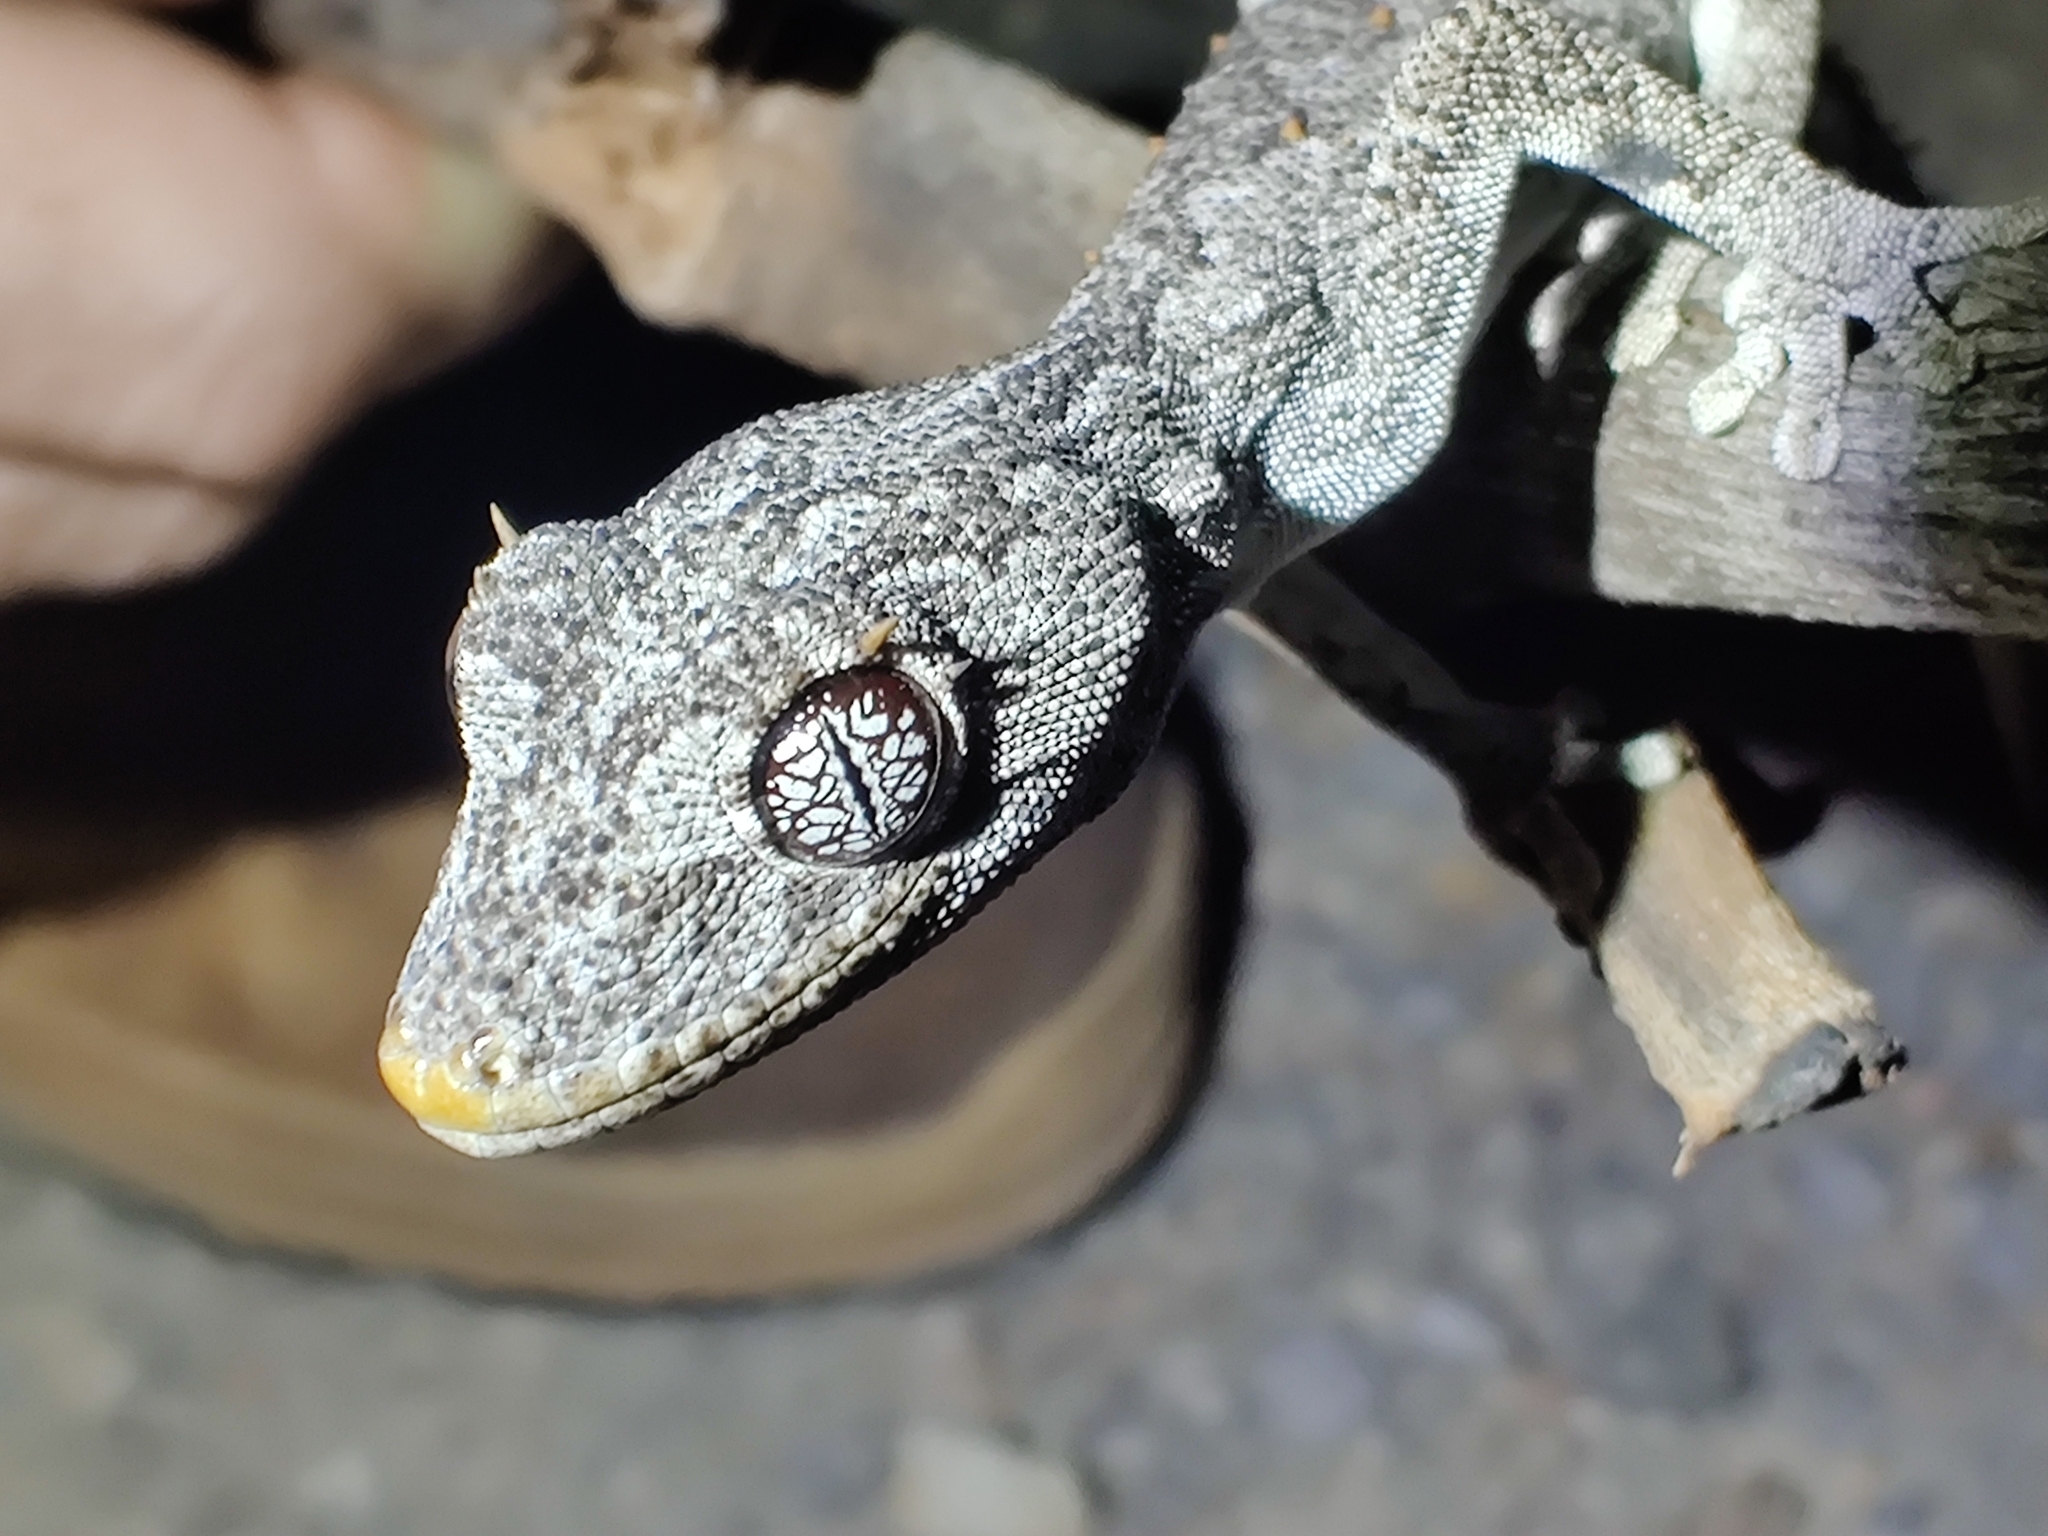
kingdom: Animalia
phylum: Chordata
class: Squamata
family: Diplodactylidae
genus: Strophurus
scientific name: Strophurus krisalys
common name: Kristin's spiny-tailed gecko
